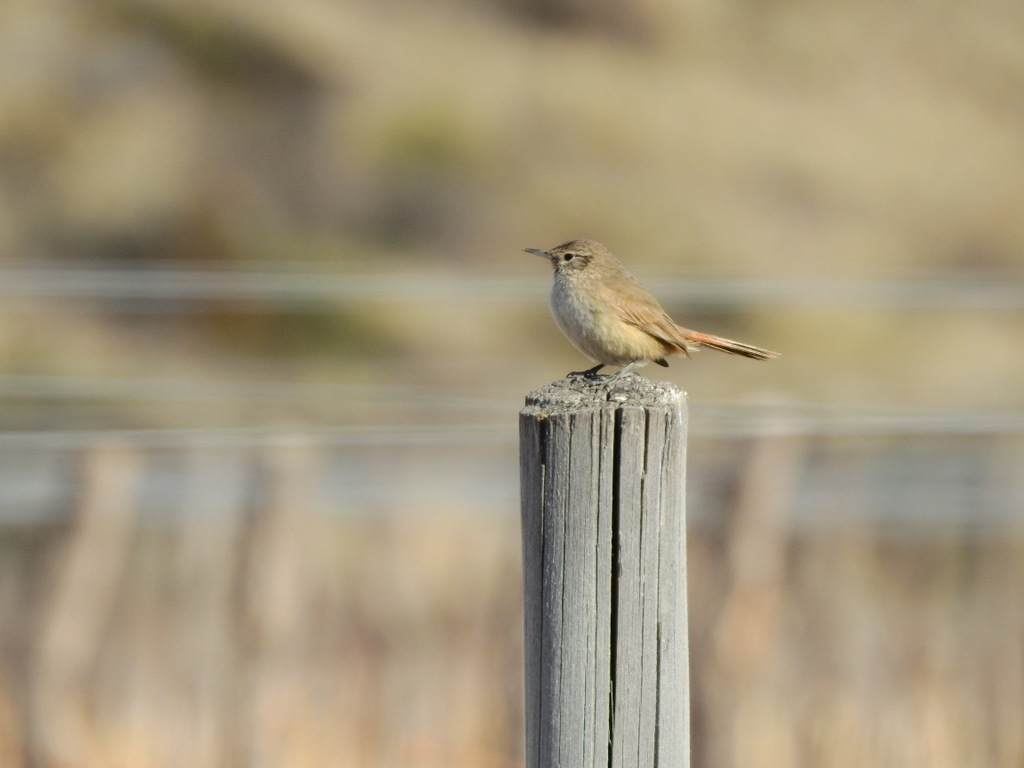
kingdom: Animalia
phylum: Chordata
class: Aves
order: Passeriformes
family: Furnariidae
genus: Asthenes
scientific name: Asthenes modesta
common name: Cordilleran canastero
